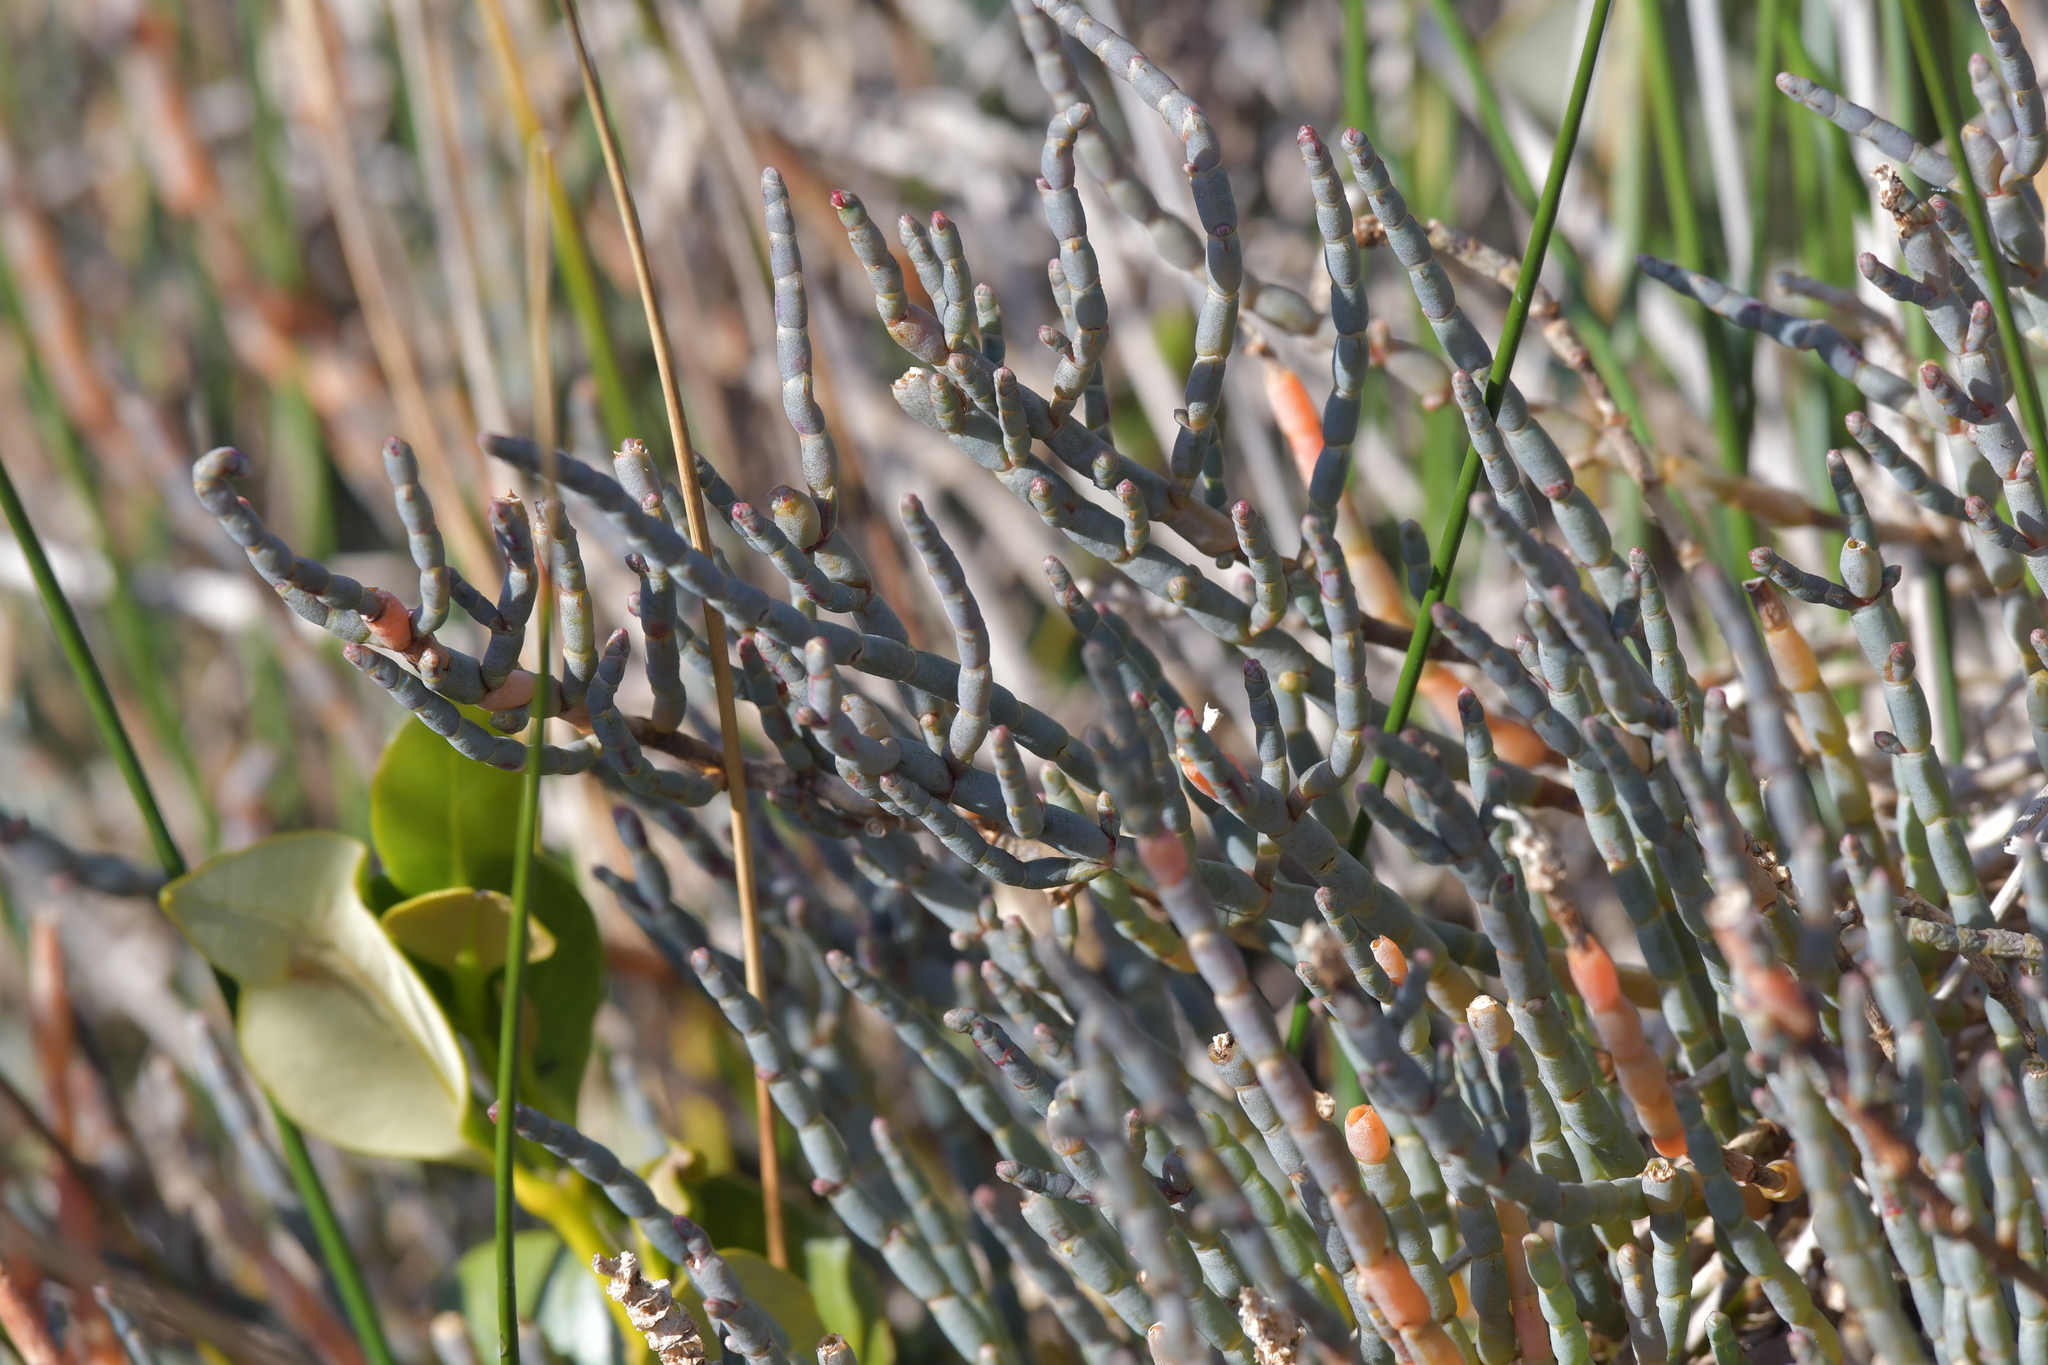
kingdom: Plantae
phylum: Tracheophyta
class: Magnoliopsida
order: Caryophyllales
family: Amaranthaceae
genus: Salicornia
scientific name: Salicornia quinqueflora
